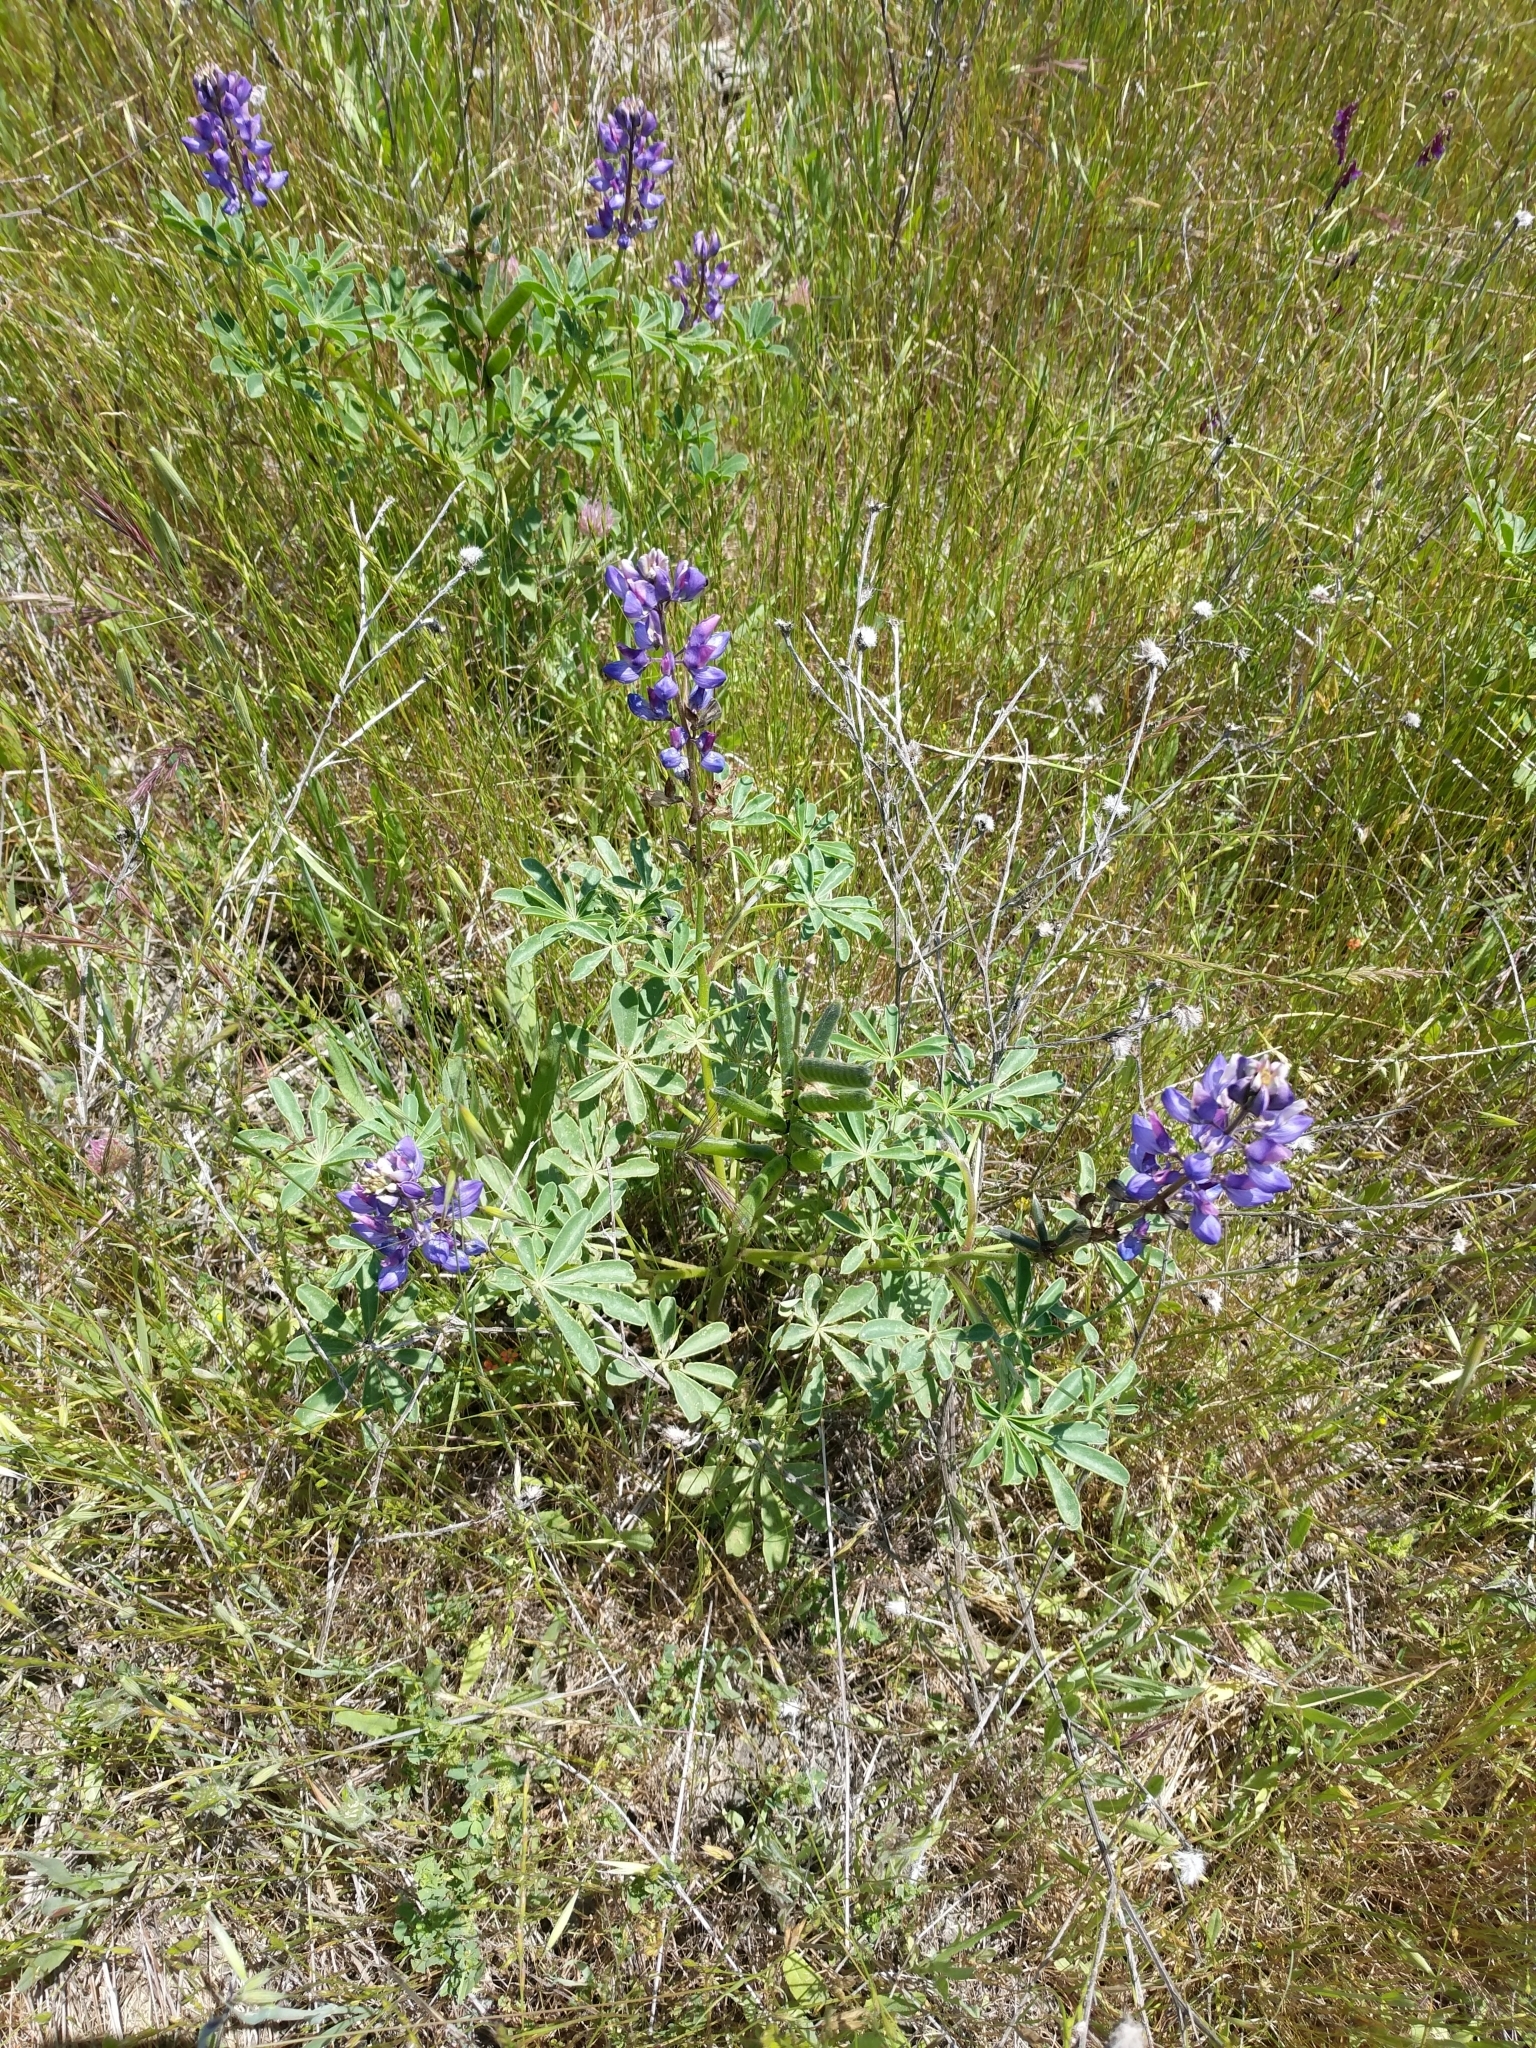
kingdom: Plantae
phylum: Tracheophyta
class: Magnoliopsida
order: Fabales
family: Fabaceae
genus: Lupinus
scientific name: Lupinus succulentus
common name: Arroyo lupine
